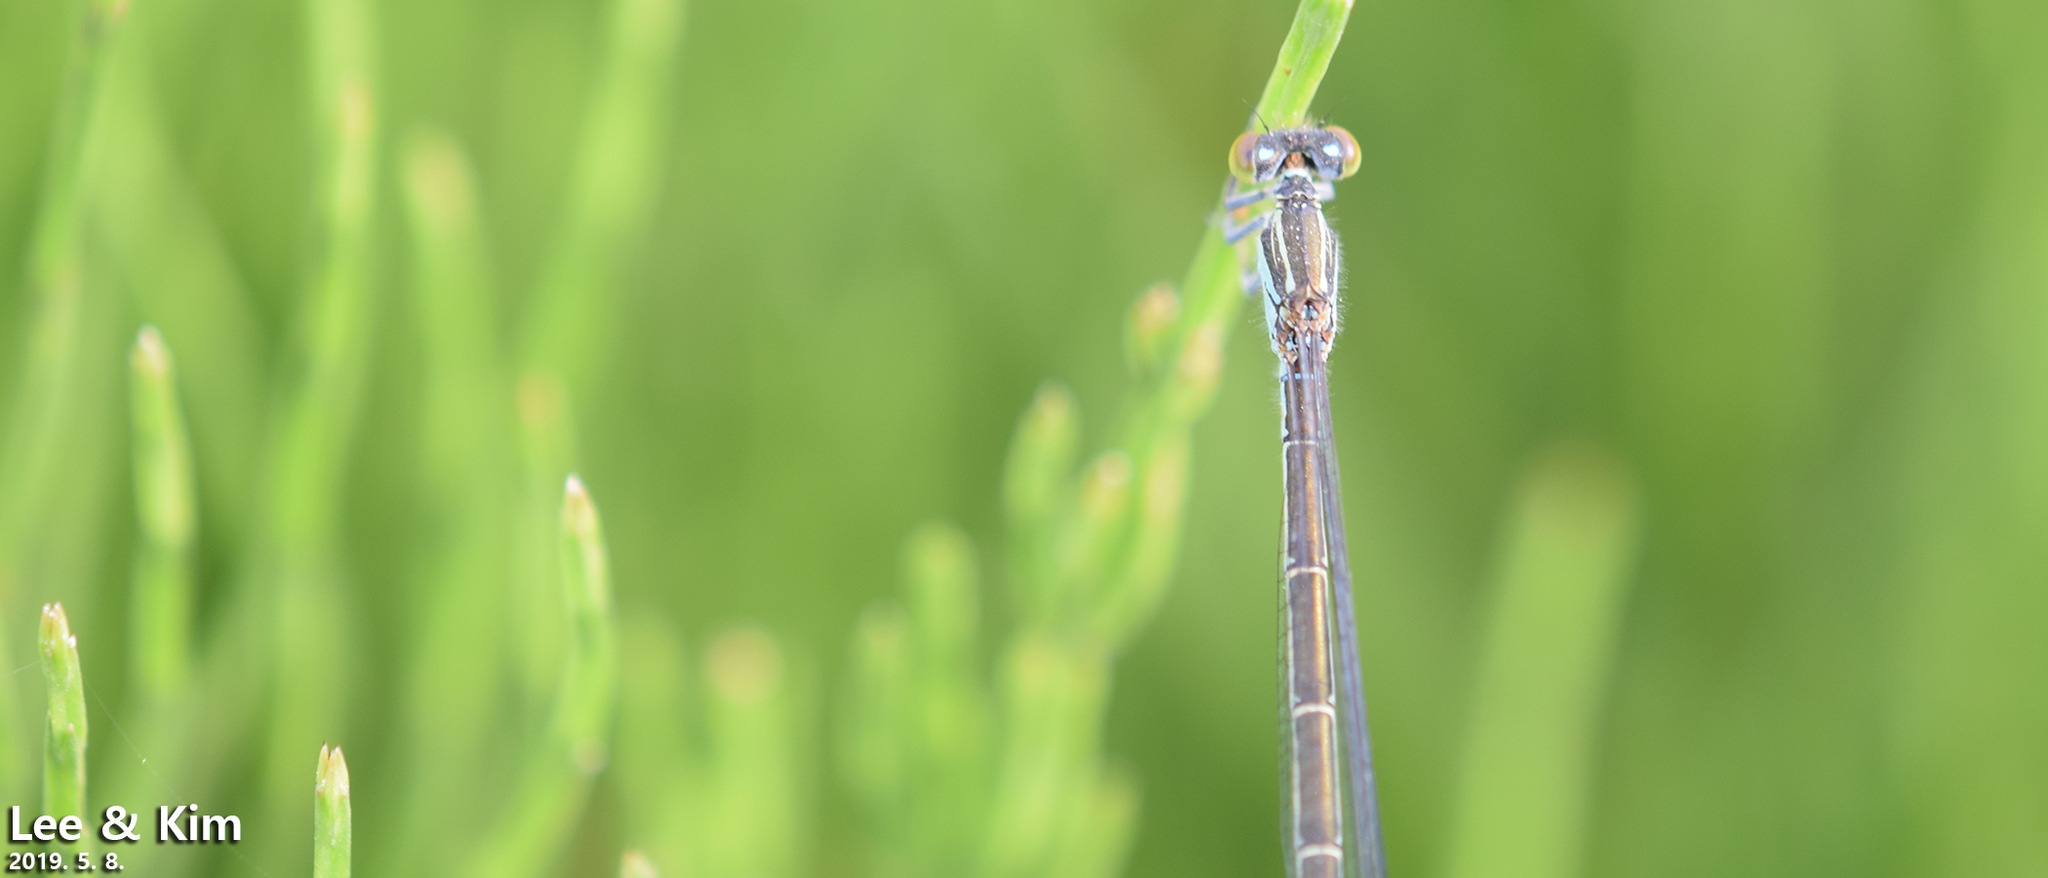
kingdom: Animalia
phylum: Arthropoda
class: Insecta
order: Odonata
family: Coenagrionidae
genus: Paracercion
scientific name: Paracercion calamorum
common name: Dusky lilysquatter
